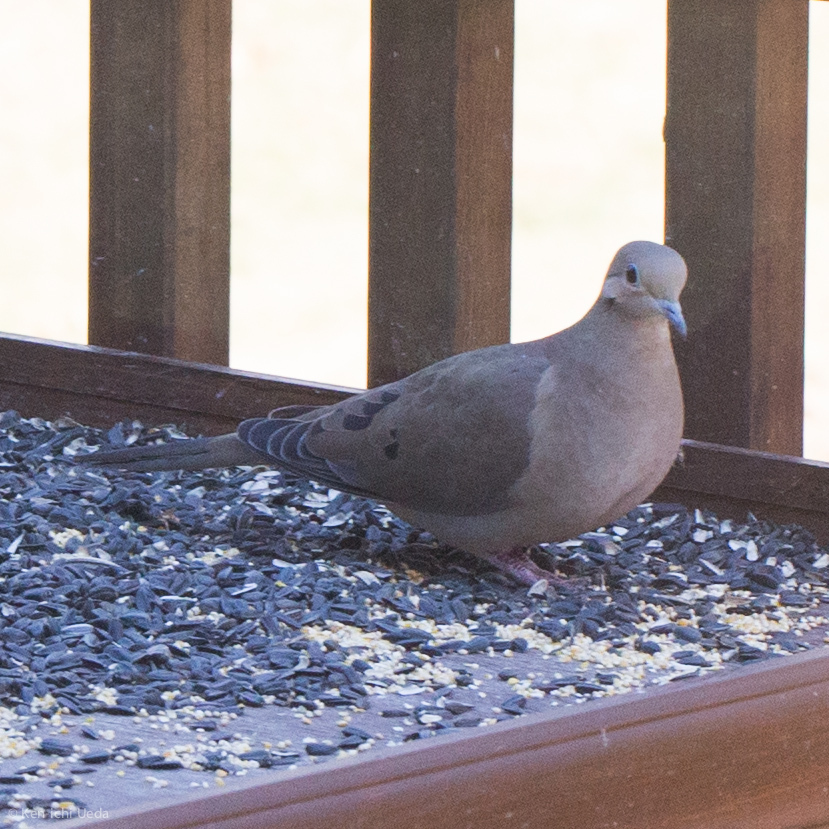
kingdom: Animalia
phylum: Chordata
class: Aves
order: Columbiformes
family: Columbidae
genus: Zenaida
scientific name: Zenaida macroura
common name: Mourning dove
